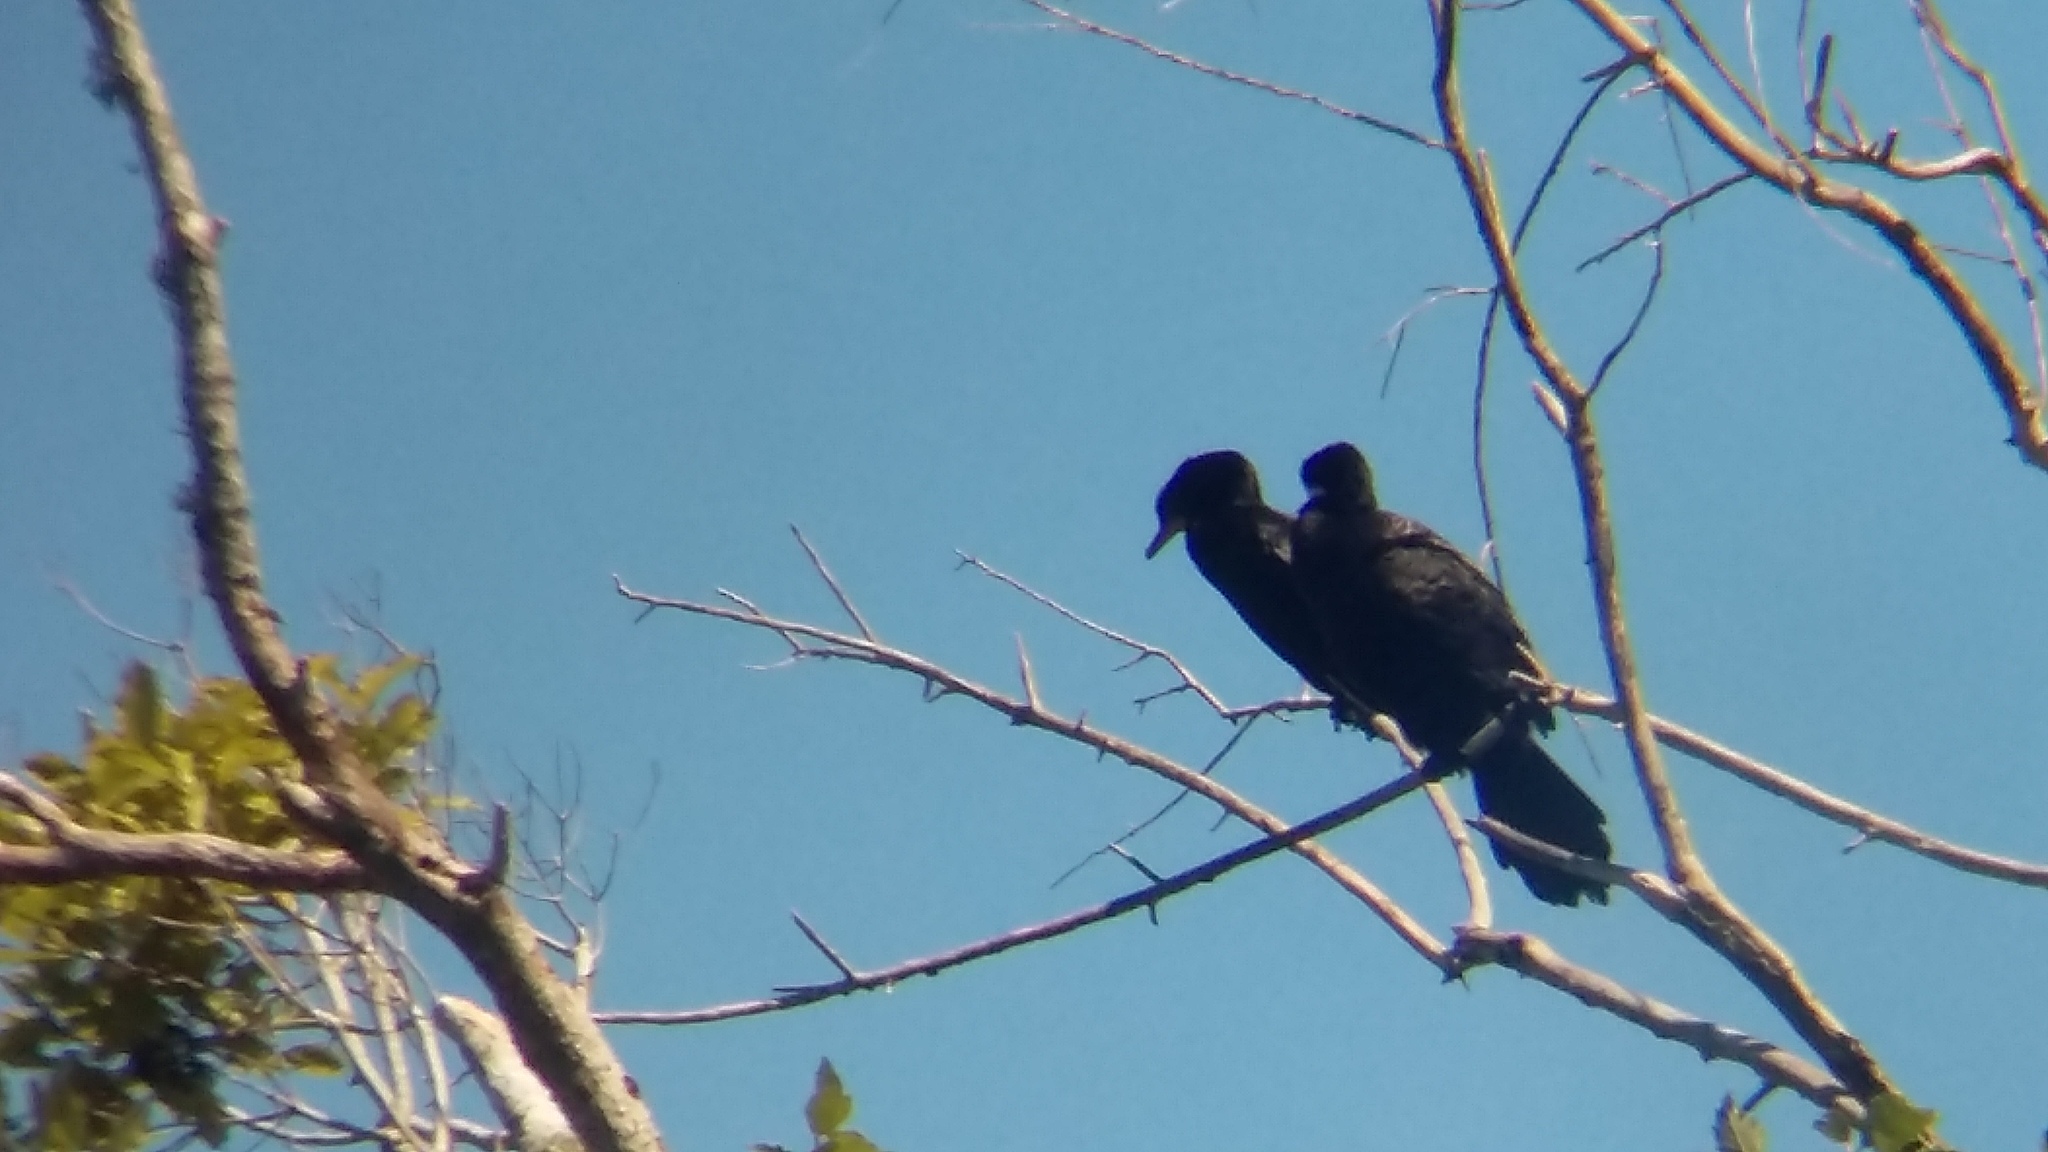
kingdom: Animalia
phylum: Chordata
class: Aves
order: Suliformes
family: Phalacrocoracidae
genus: Microcarbo
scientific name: Microcarbo melanoleucos
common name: Little pied cormorant
